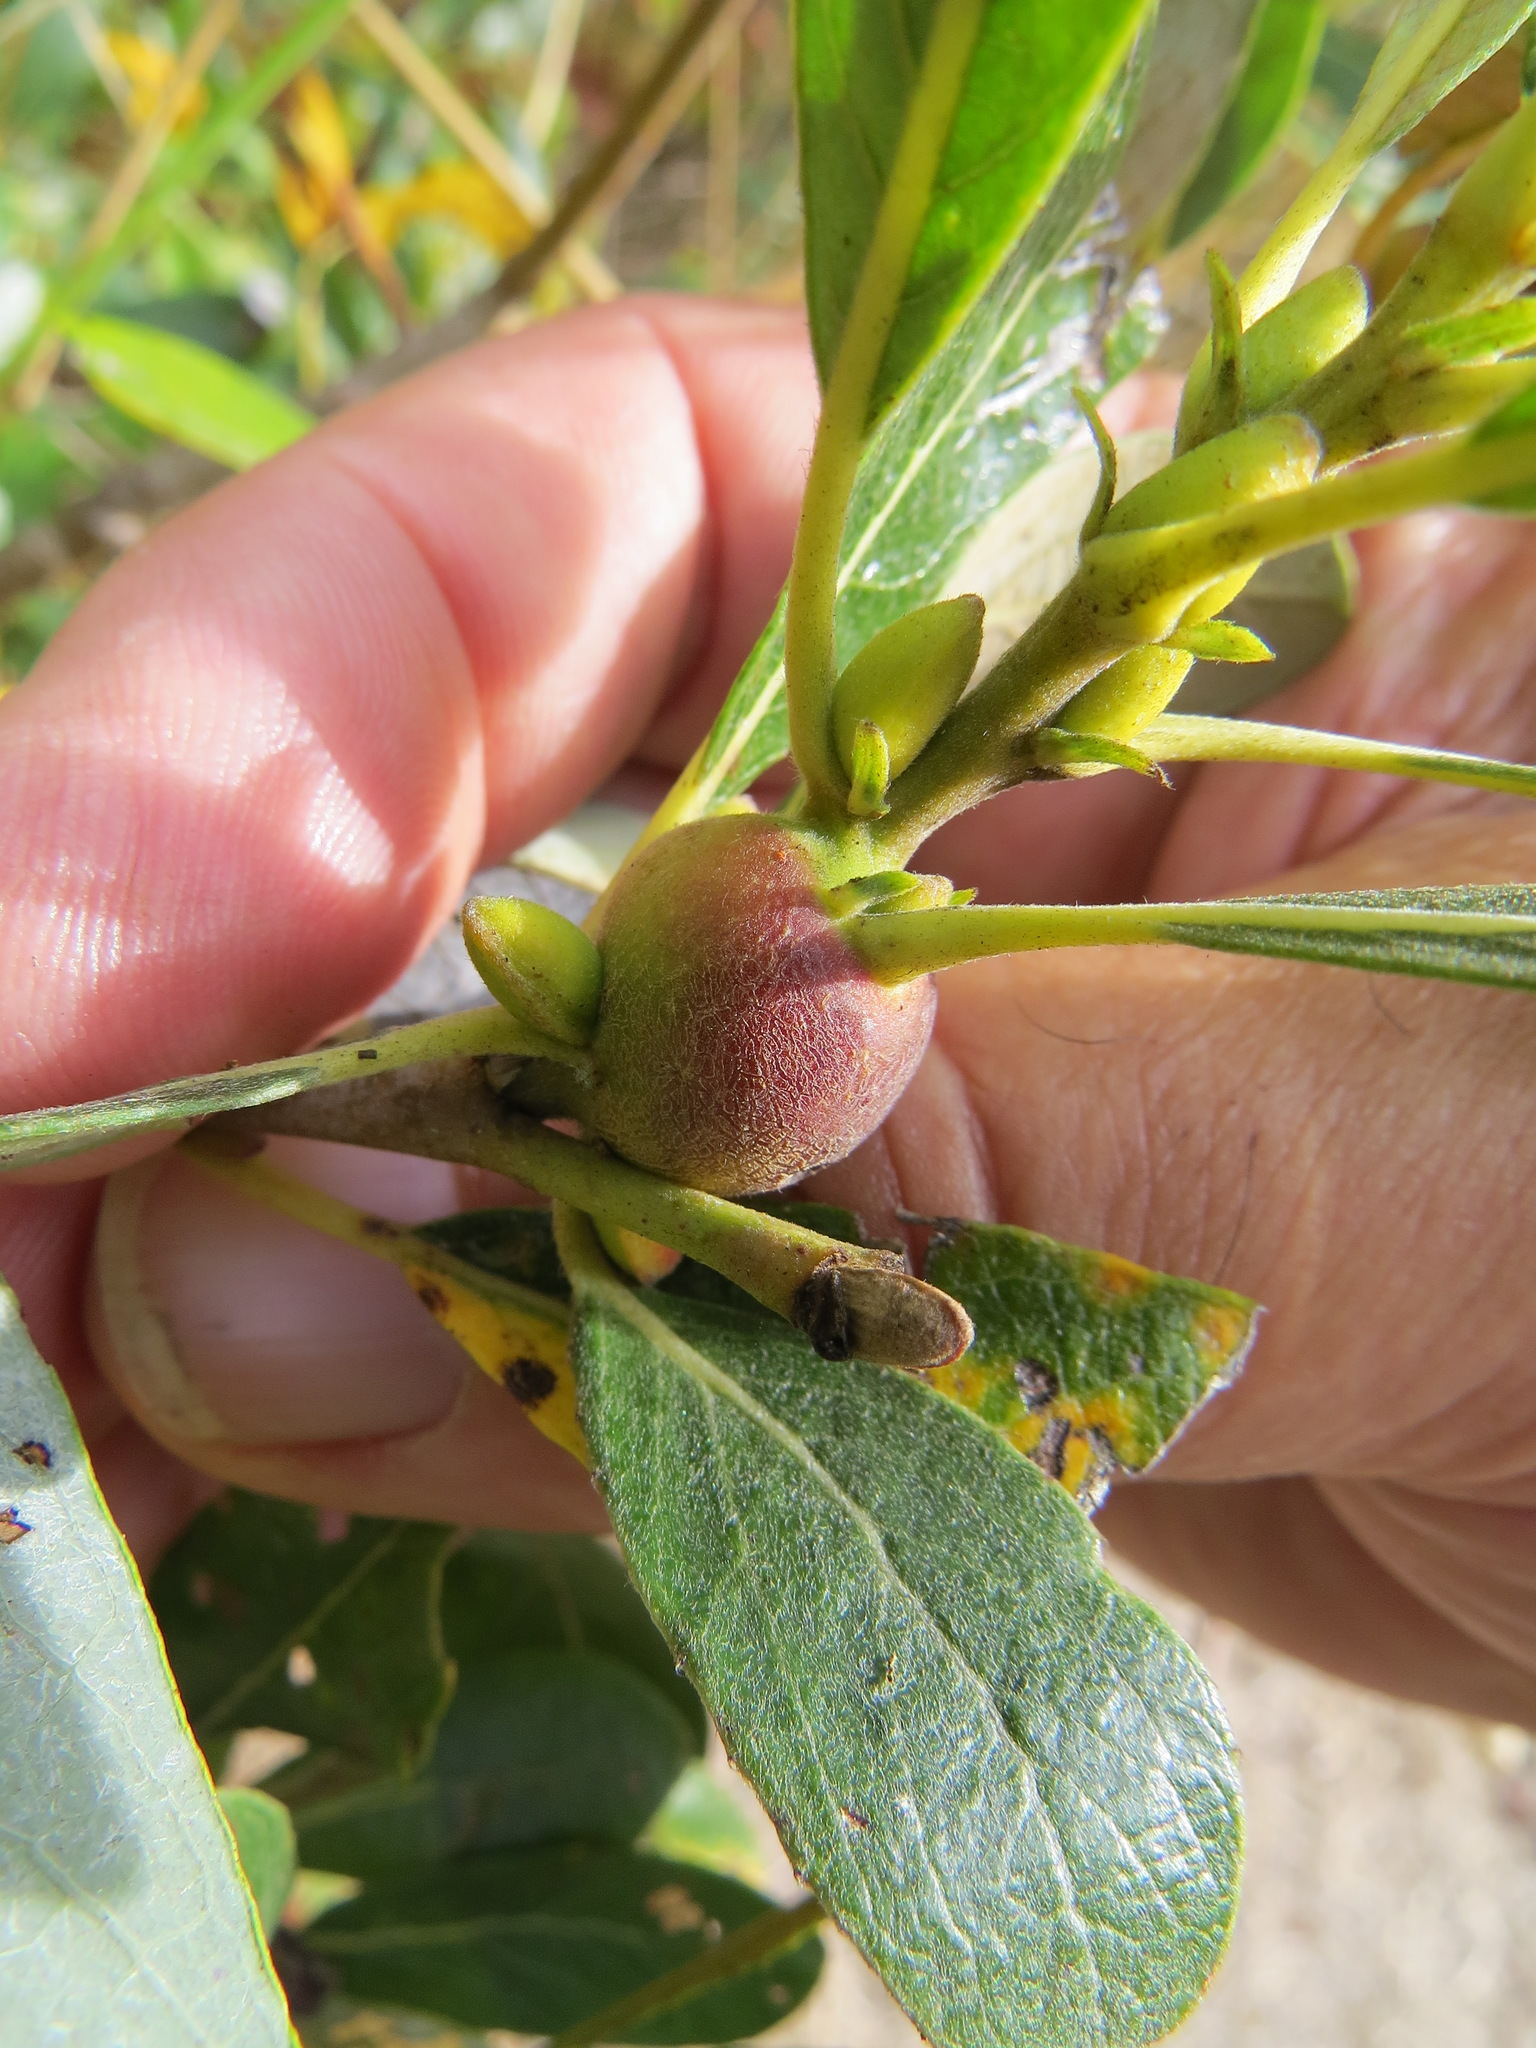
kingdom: Animalia
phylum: Arthropoda
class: Insecta
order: Diptera
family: Cecidomyiidae
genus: Rabdophaga
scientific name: Rabdophaga salicisbatatas
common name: Potato gall midge
